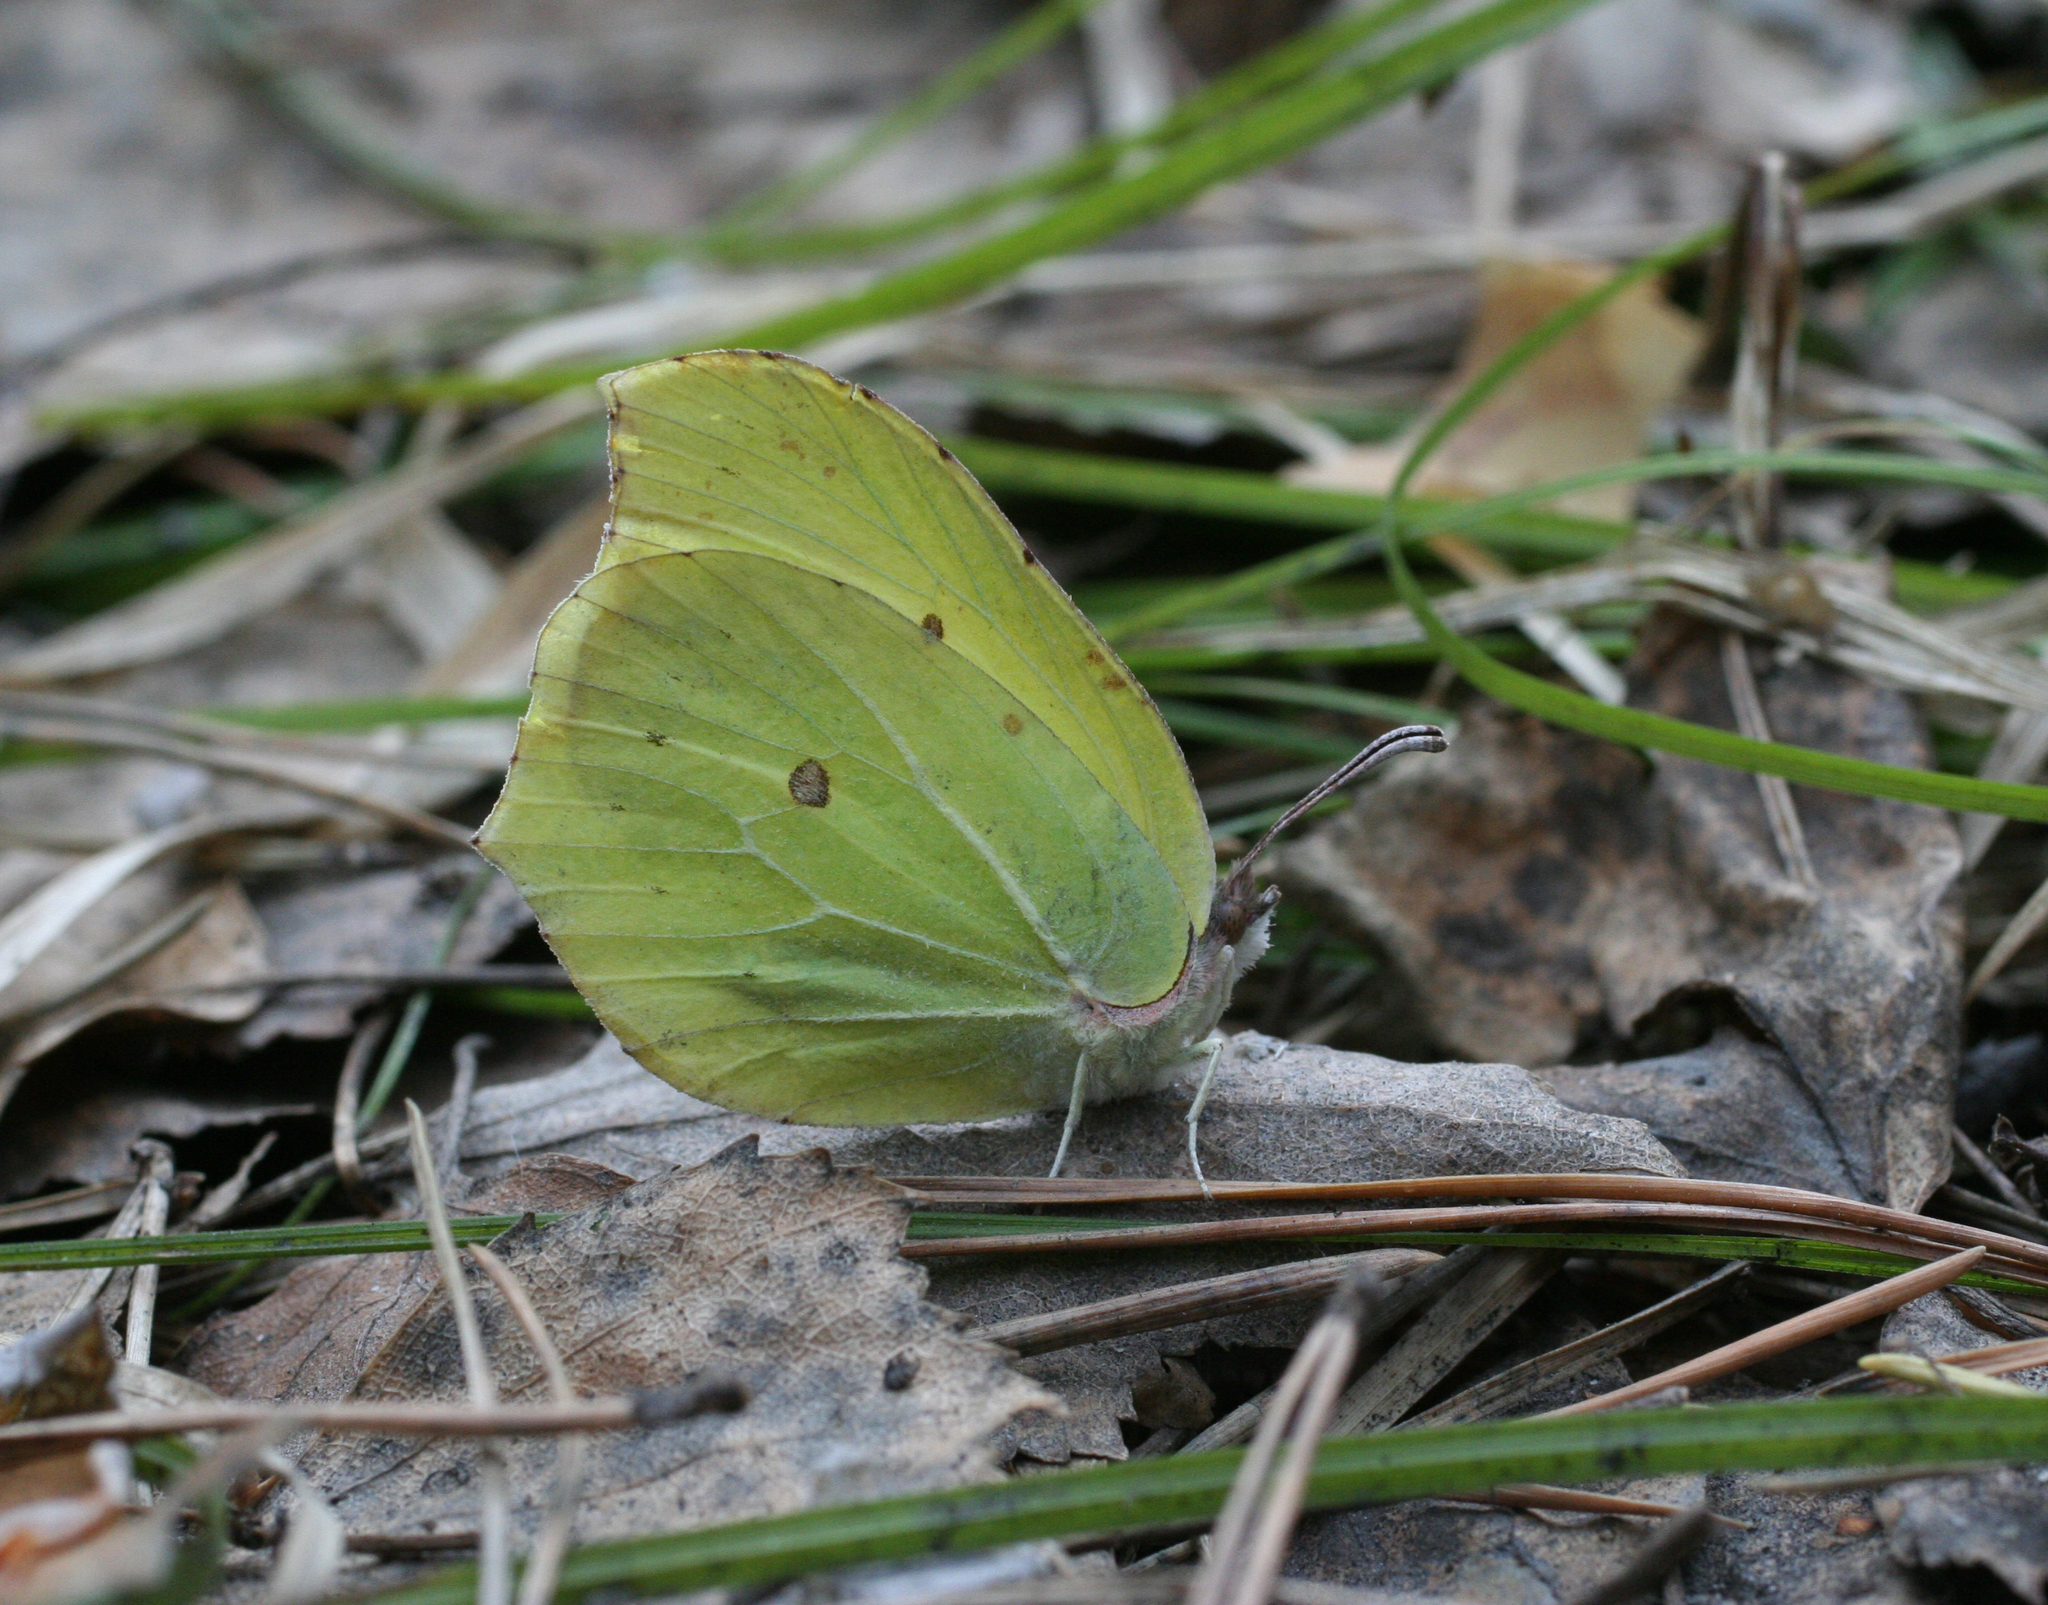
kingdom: Animalia
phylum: Arthropoda
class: Insecta
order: Lepidoptera
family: Pieridae
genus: Gonepteryx
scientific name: Gonepteryx rhamni
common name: Brimstone
